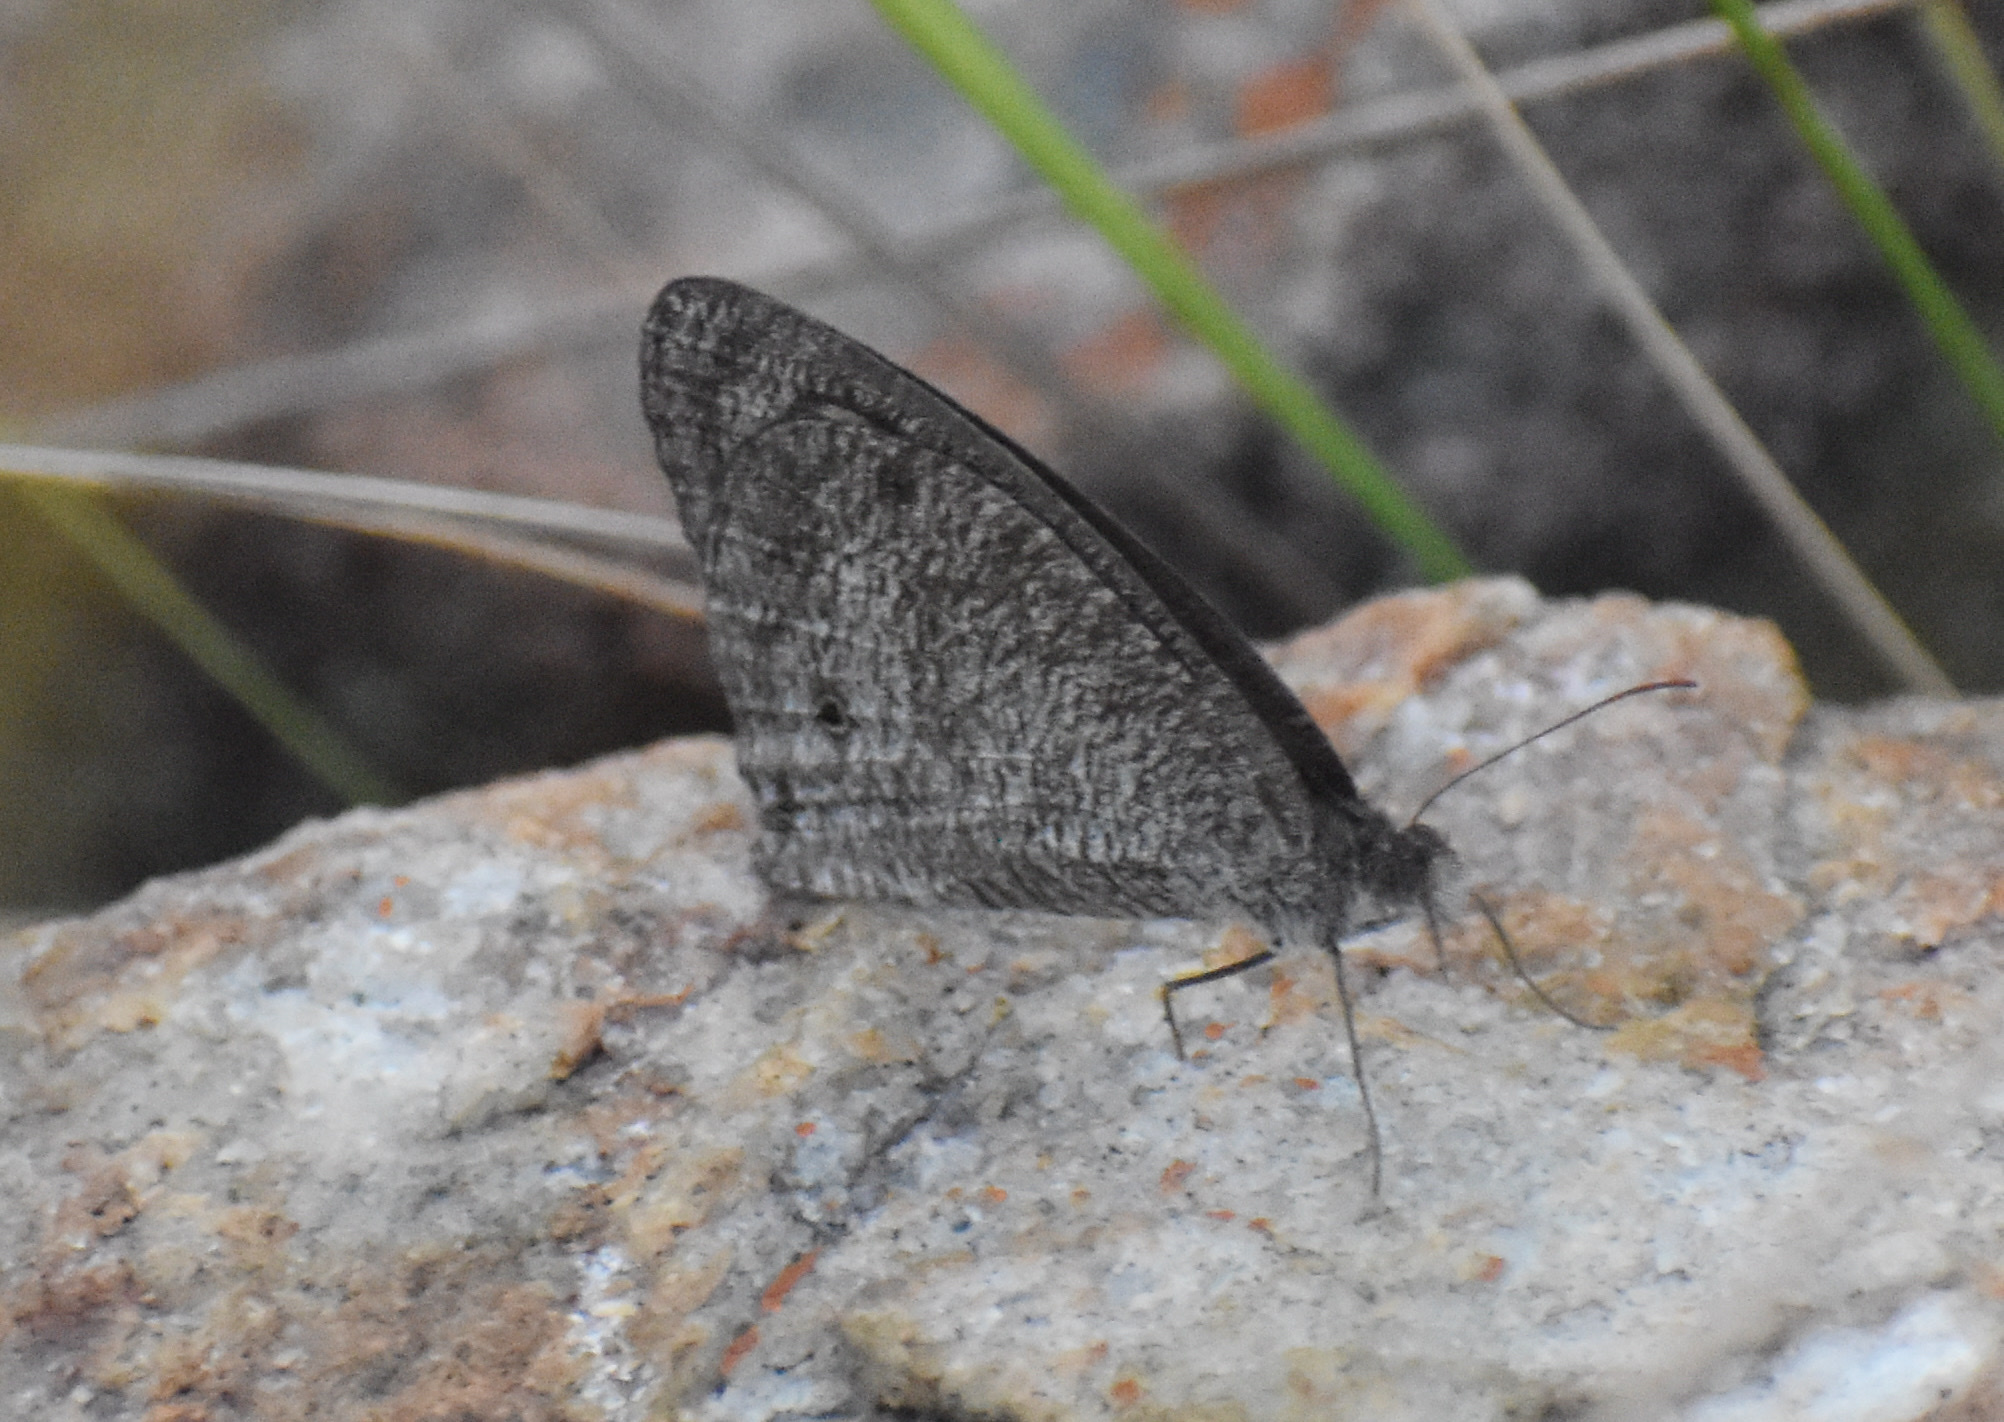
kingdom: Animalia
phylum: Arthropoda
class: Insecta
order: Lepidoptera
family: Nymphalidae
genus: Ypthima
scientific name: Ypthima asterope
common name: African ringlet
